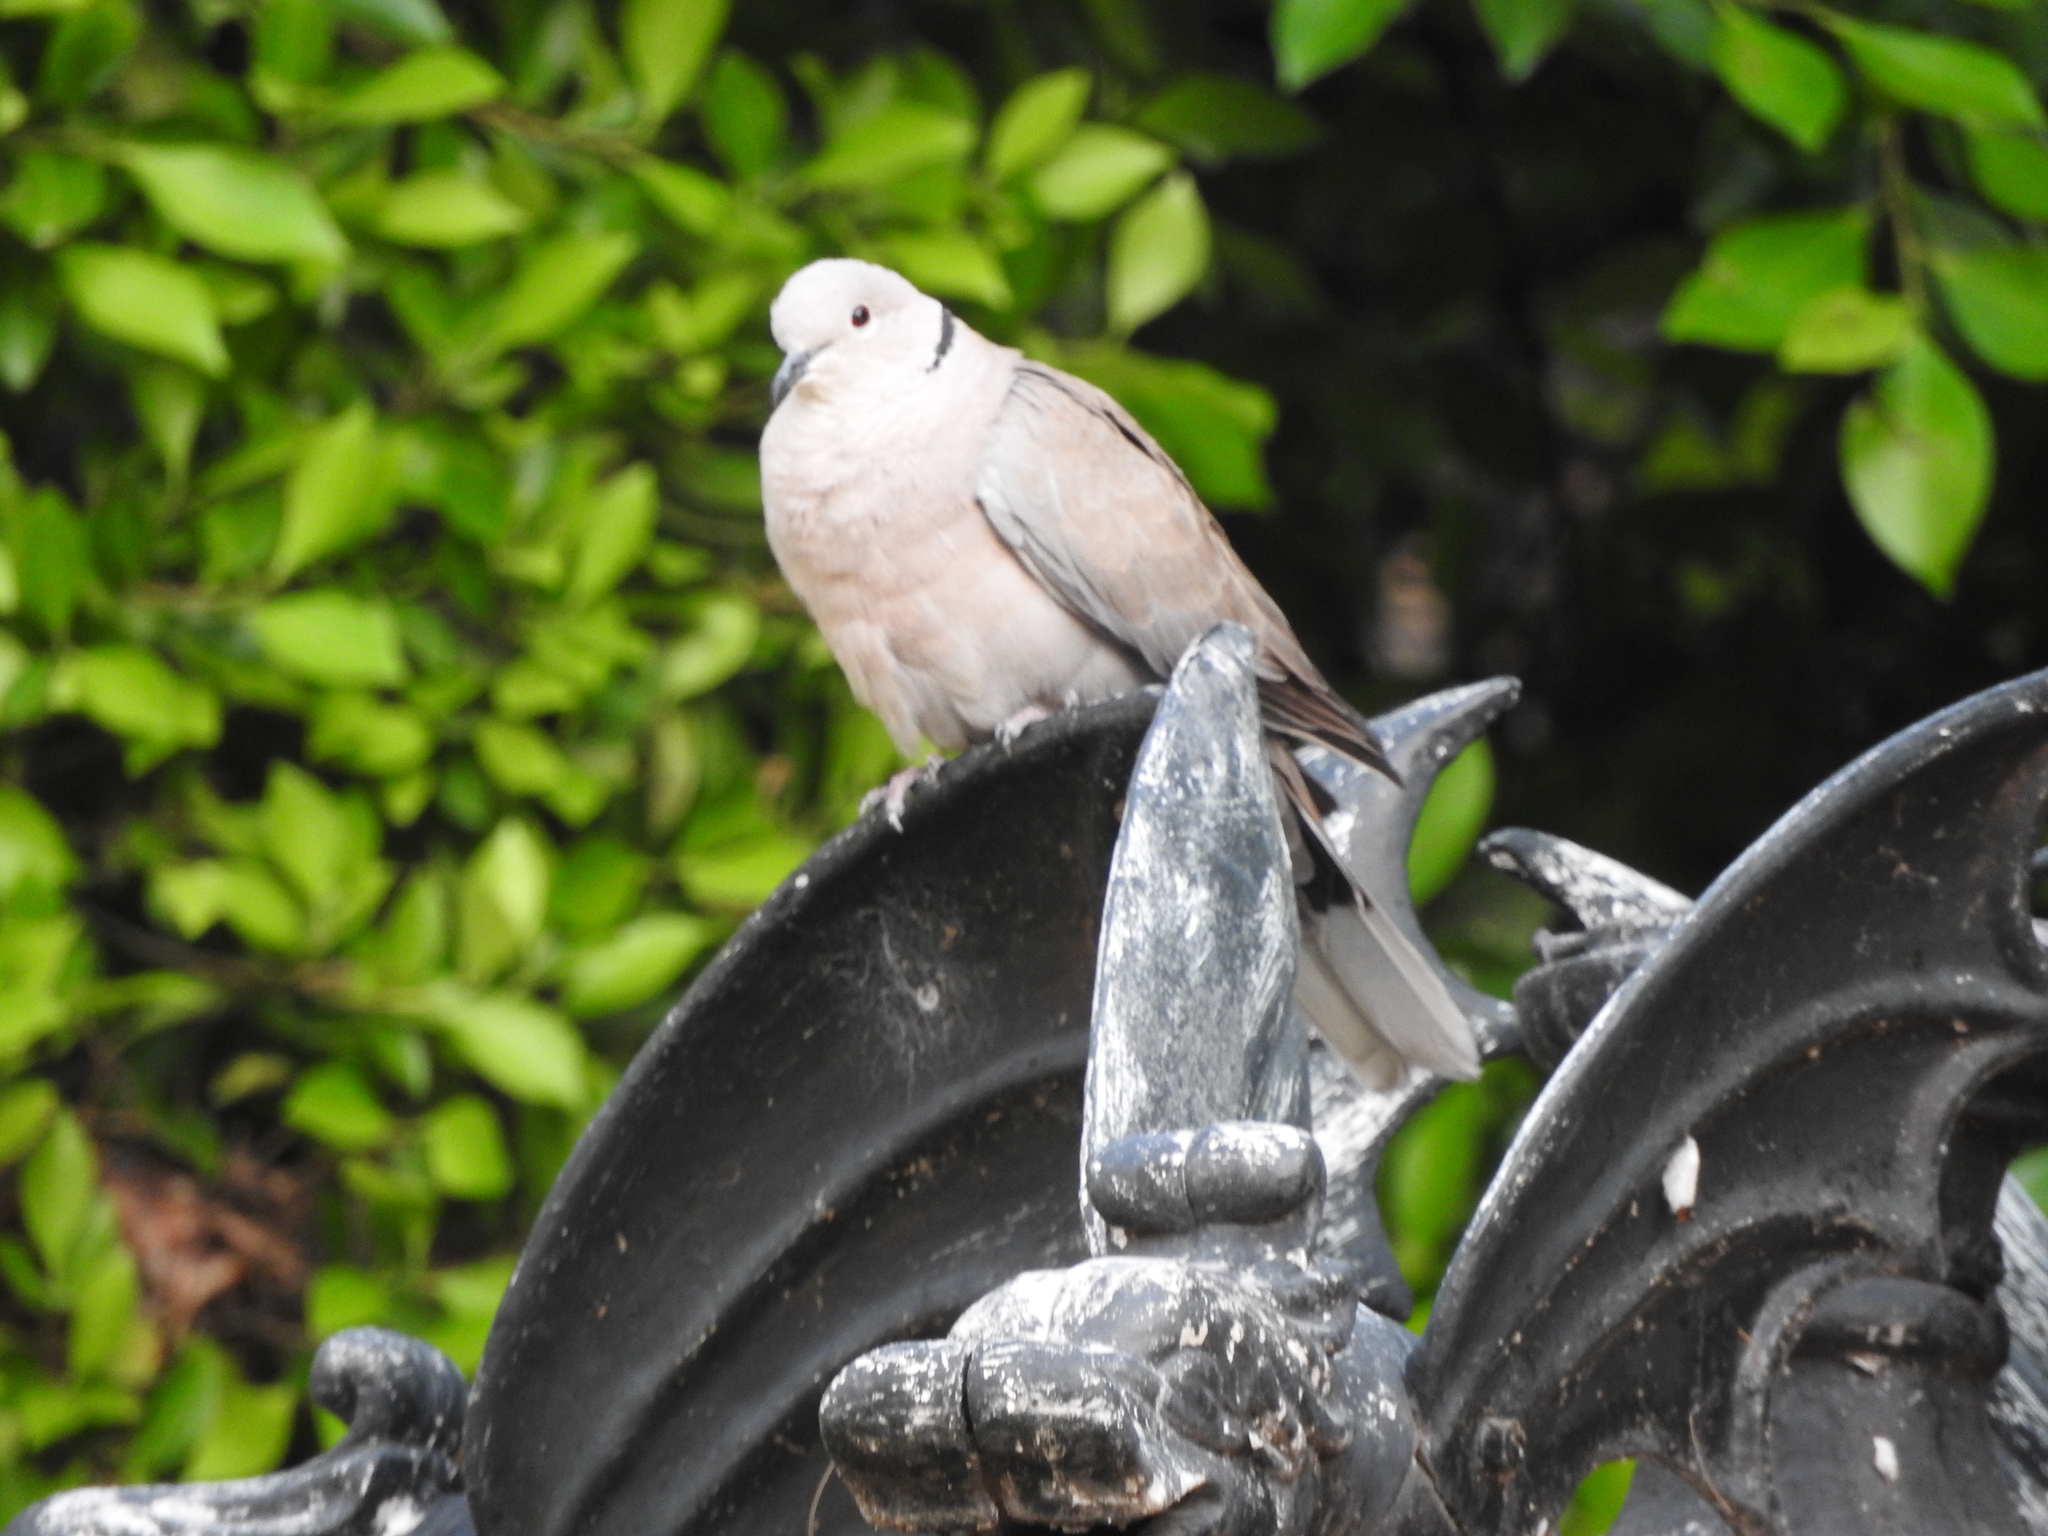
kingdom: Animalia
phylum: Chordata
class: Aves
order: Columbiformes
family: Columbidae
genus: Streptopelia
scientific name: Streptopelia decaocto
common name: Eurasian collared dove
